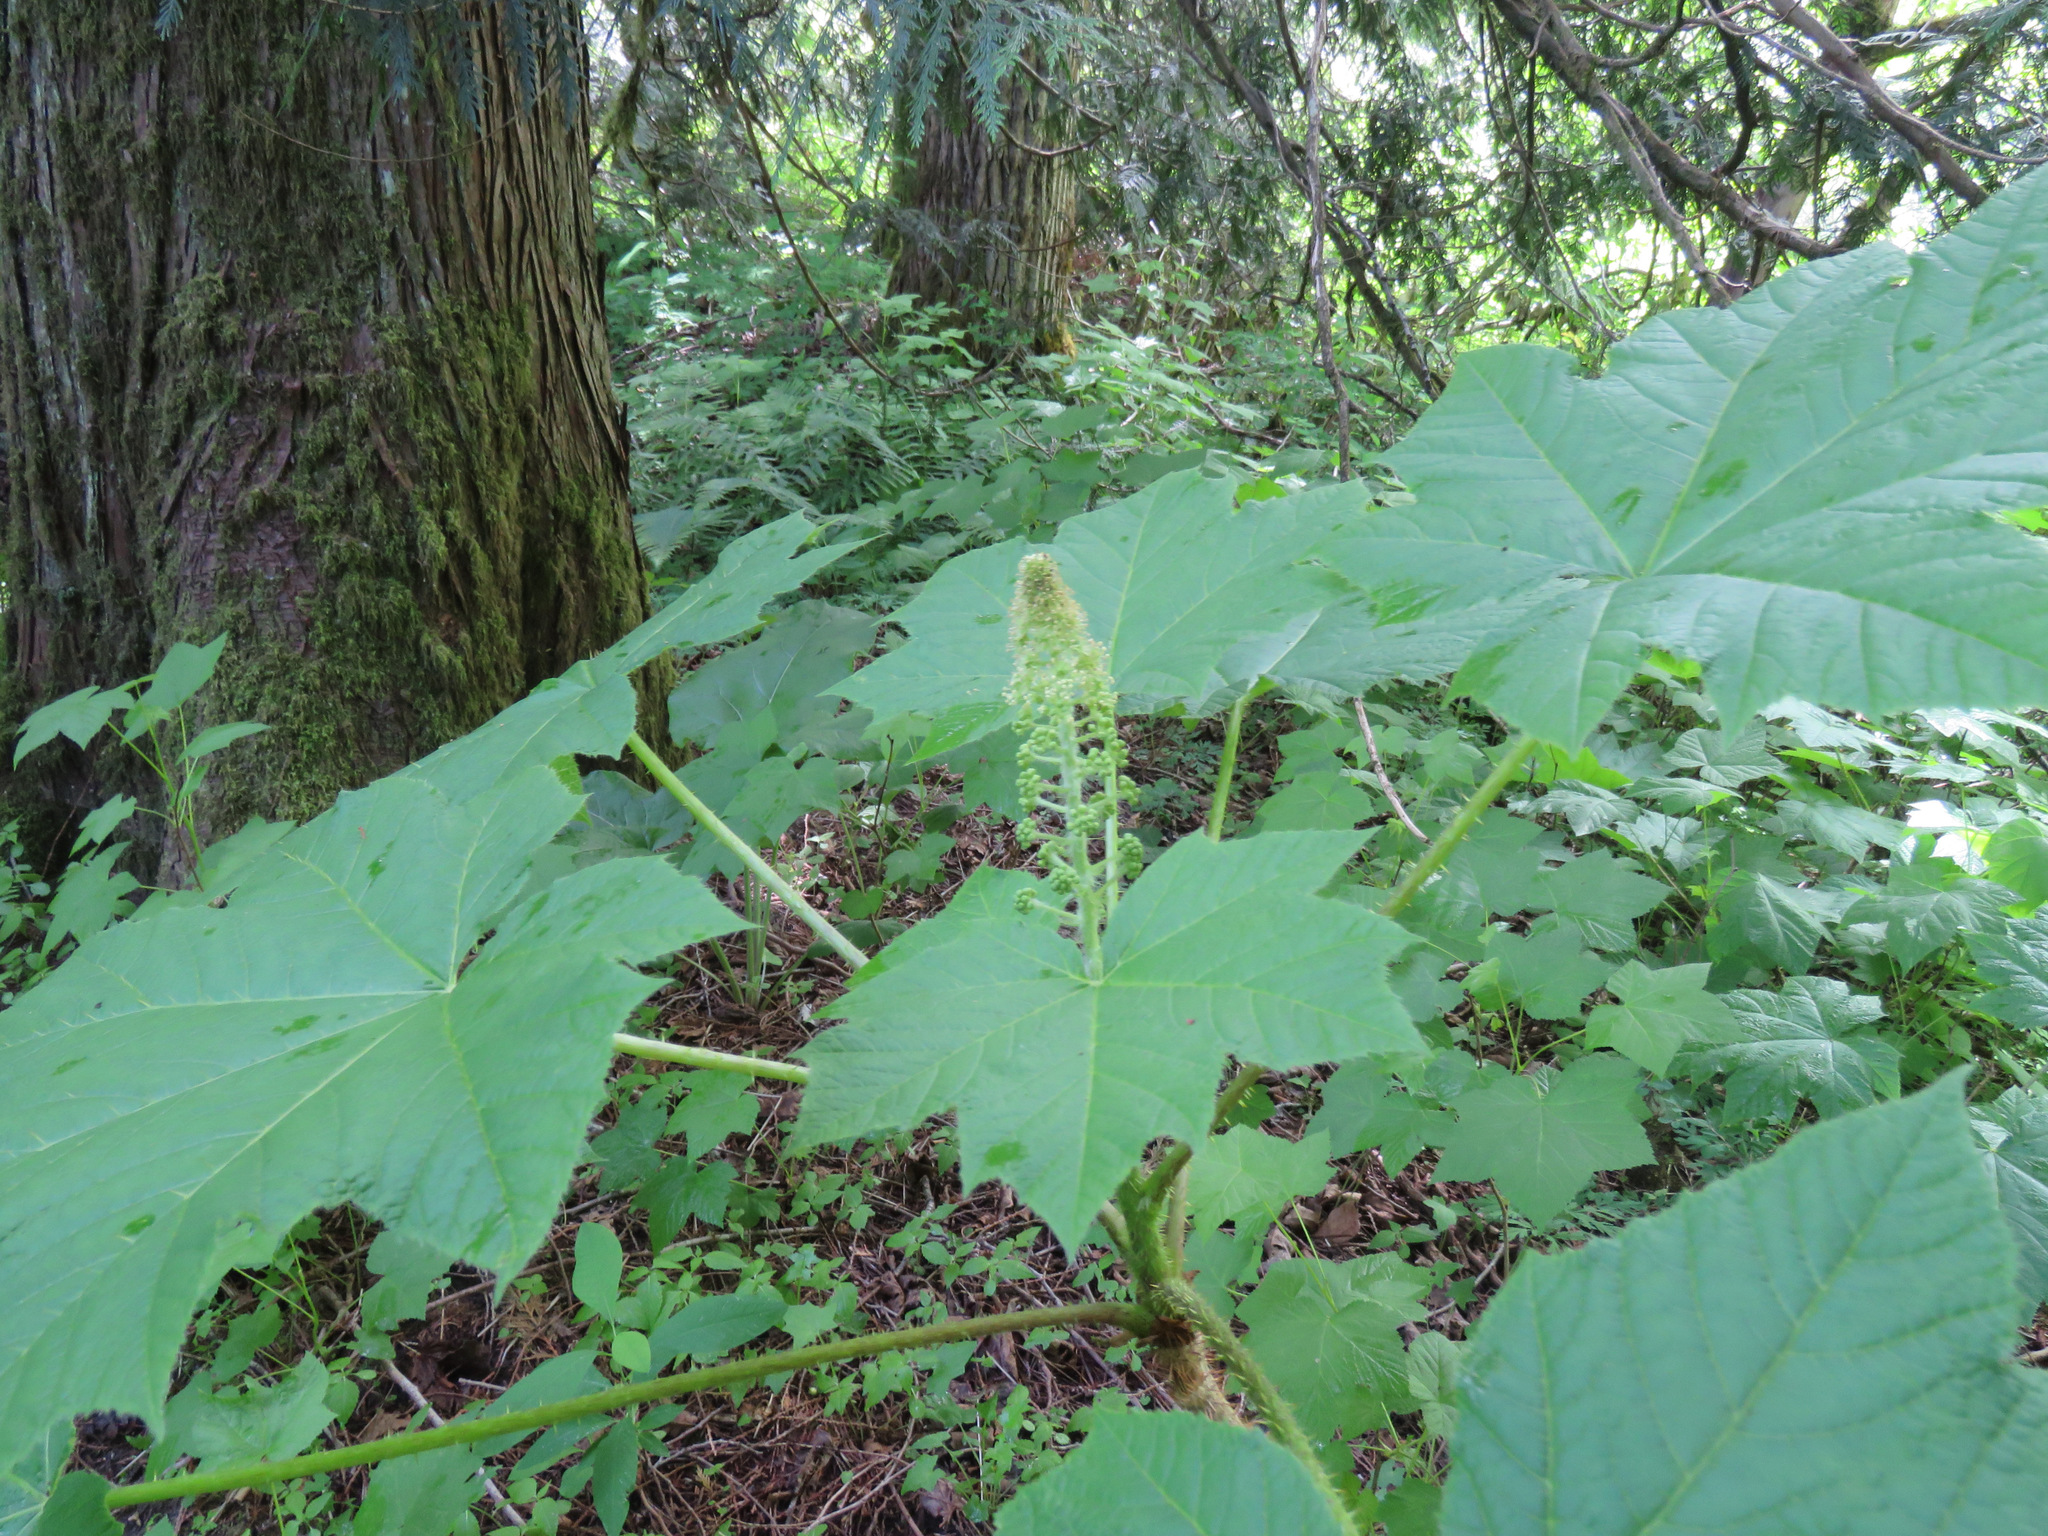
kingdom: Plantae
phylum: Tracheophyta
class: Magnoliopsida
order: Apiales
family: Araliaceae
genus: Oplopanax
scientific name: Oplopanax horridus
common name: Devil's walking-stick
